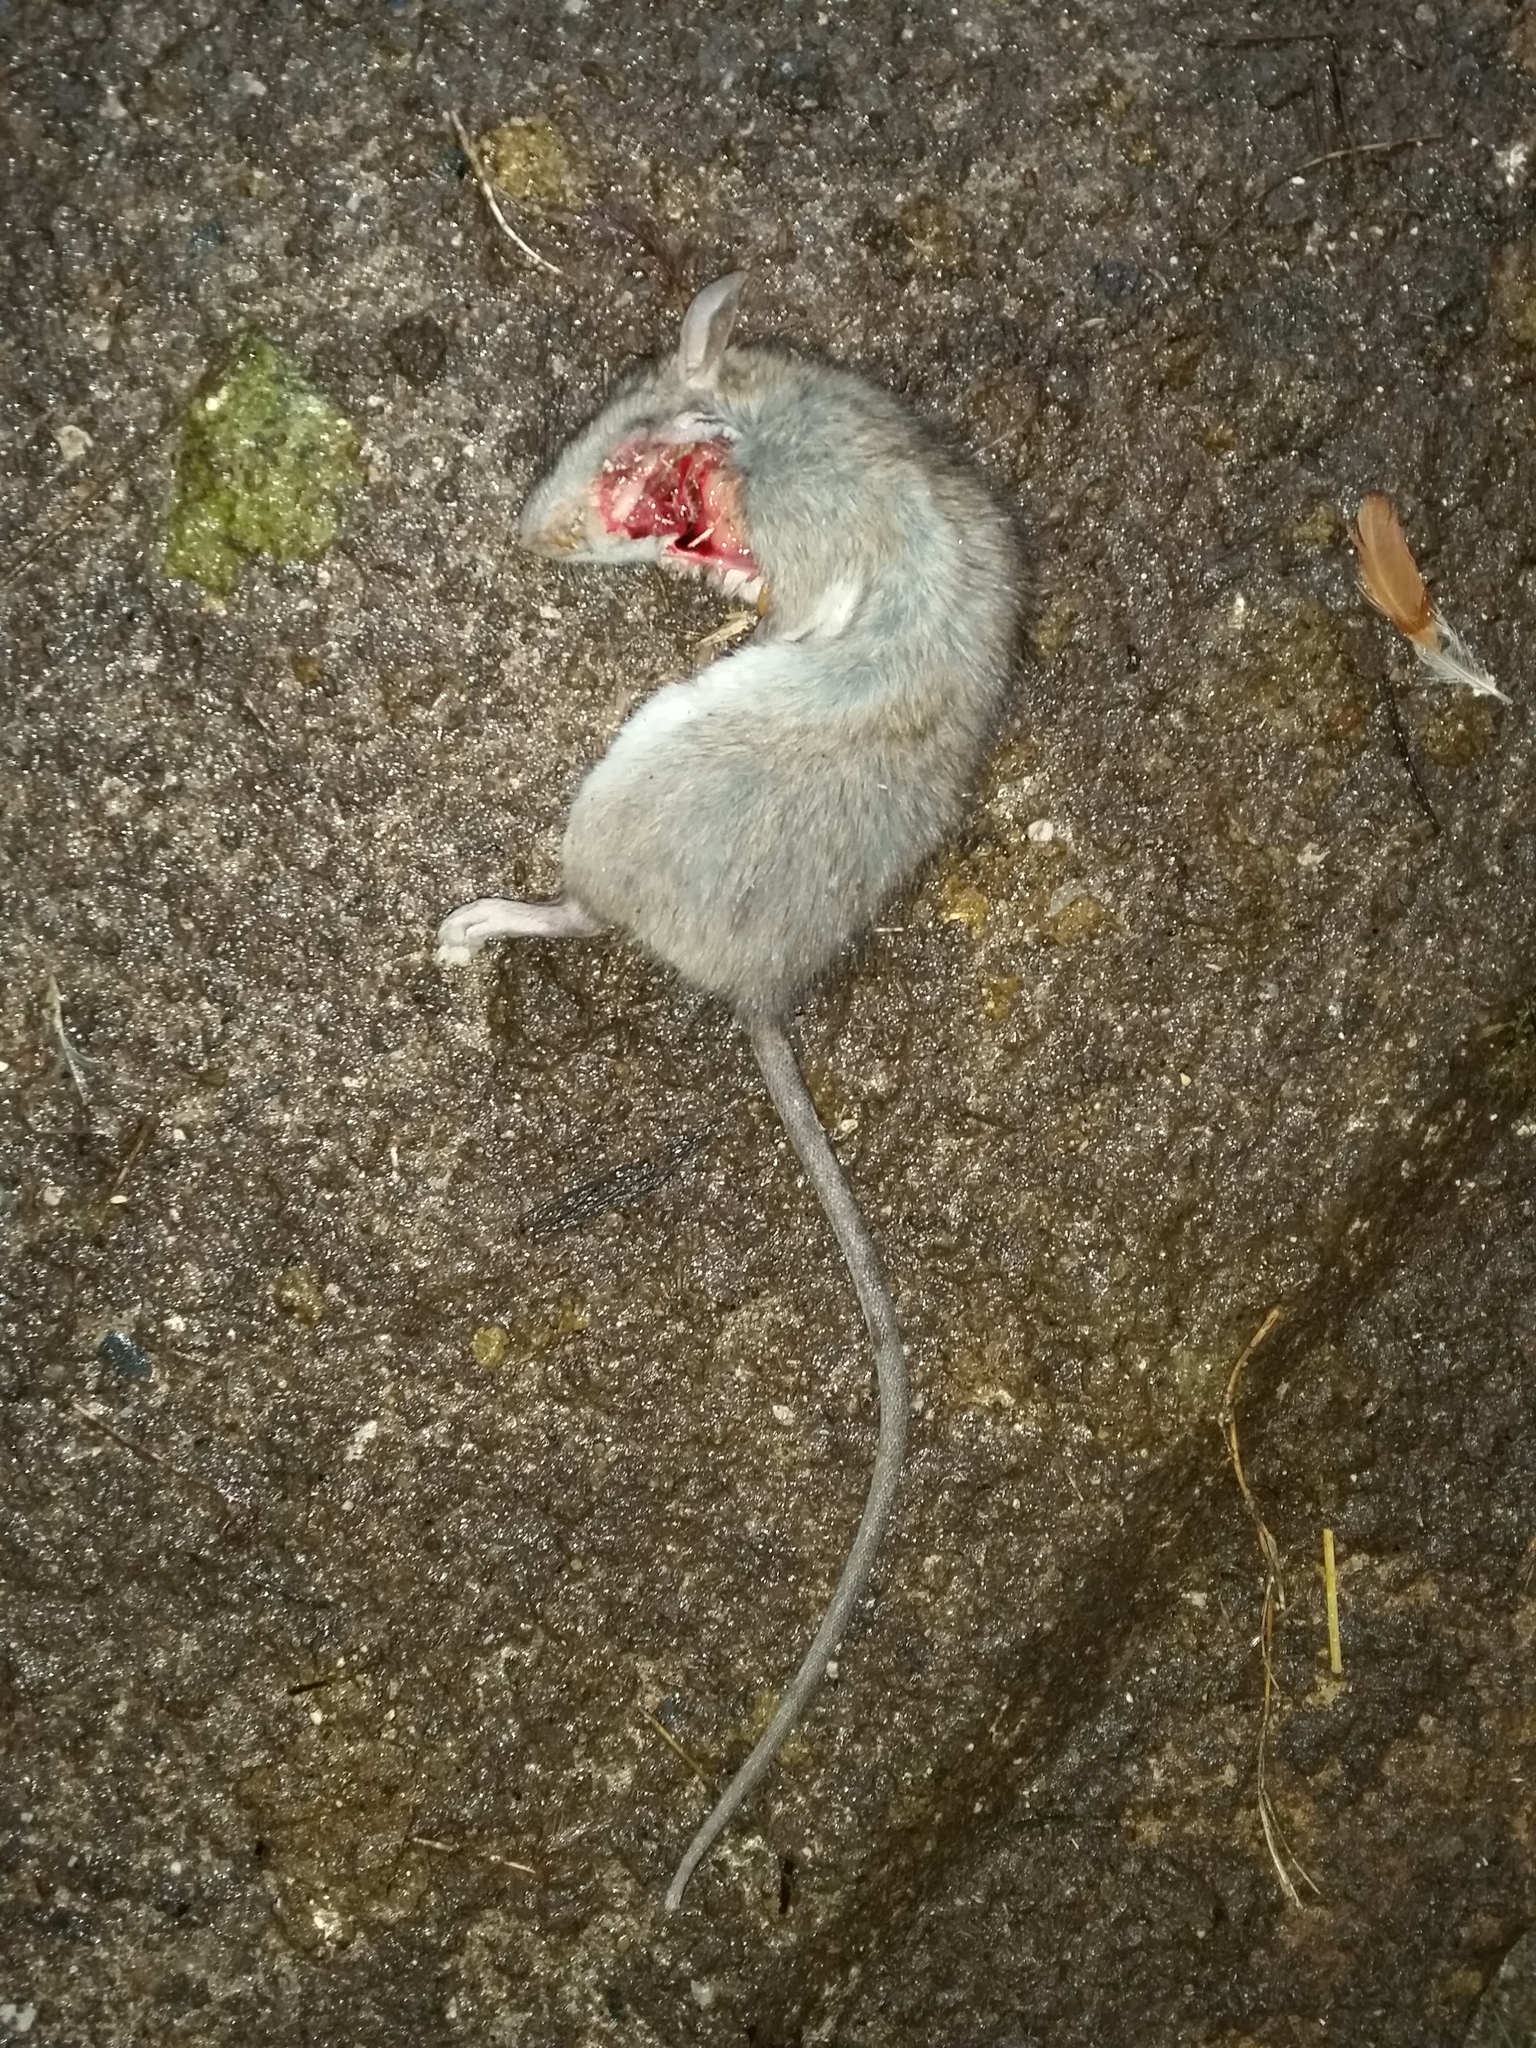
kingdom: Animalia
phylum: Chordata
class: Mammalia
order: Rodentia
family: Muridae
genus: Rattus
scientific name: Rattus rattus
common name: Black rat
